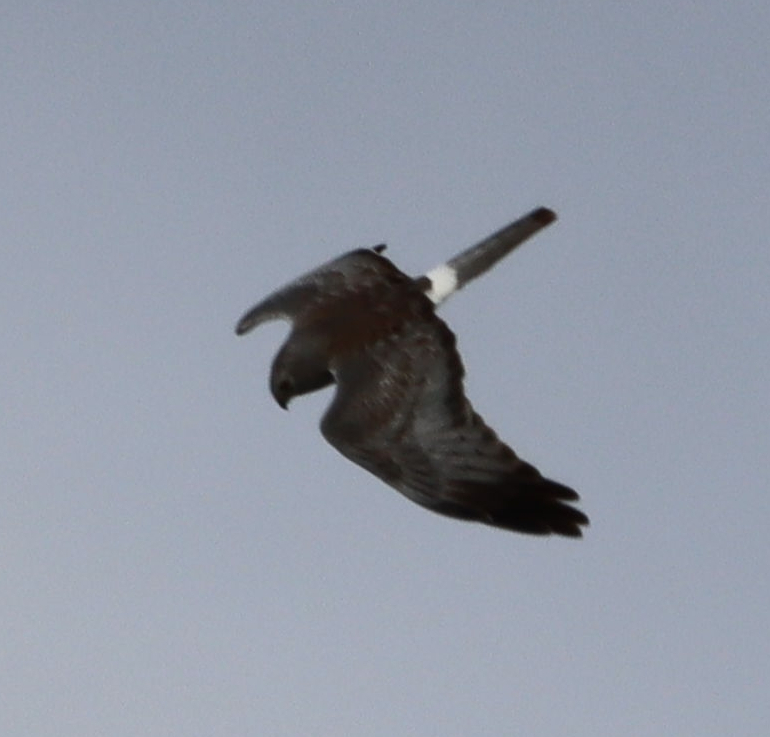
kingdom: Animalia
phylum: Chordata
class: Aves
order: Accipitriformes
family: Accipitridae
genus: Circus
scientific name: Circus cyaneus
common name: Hen harrier
